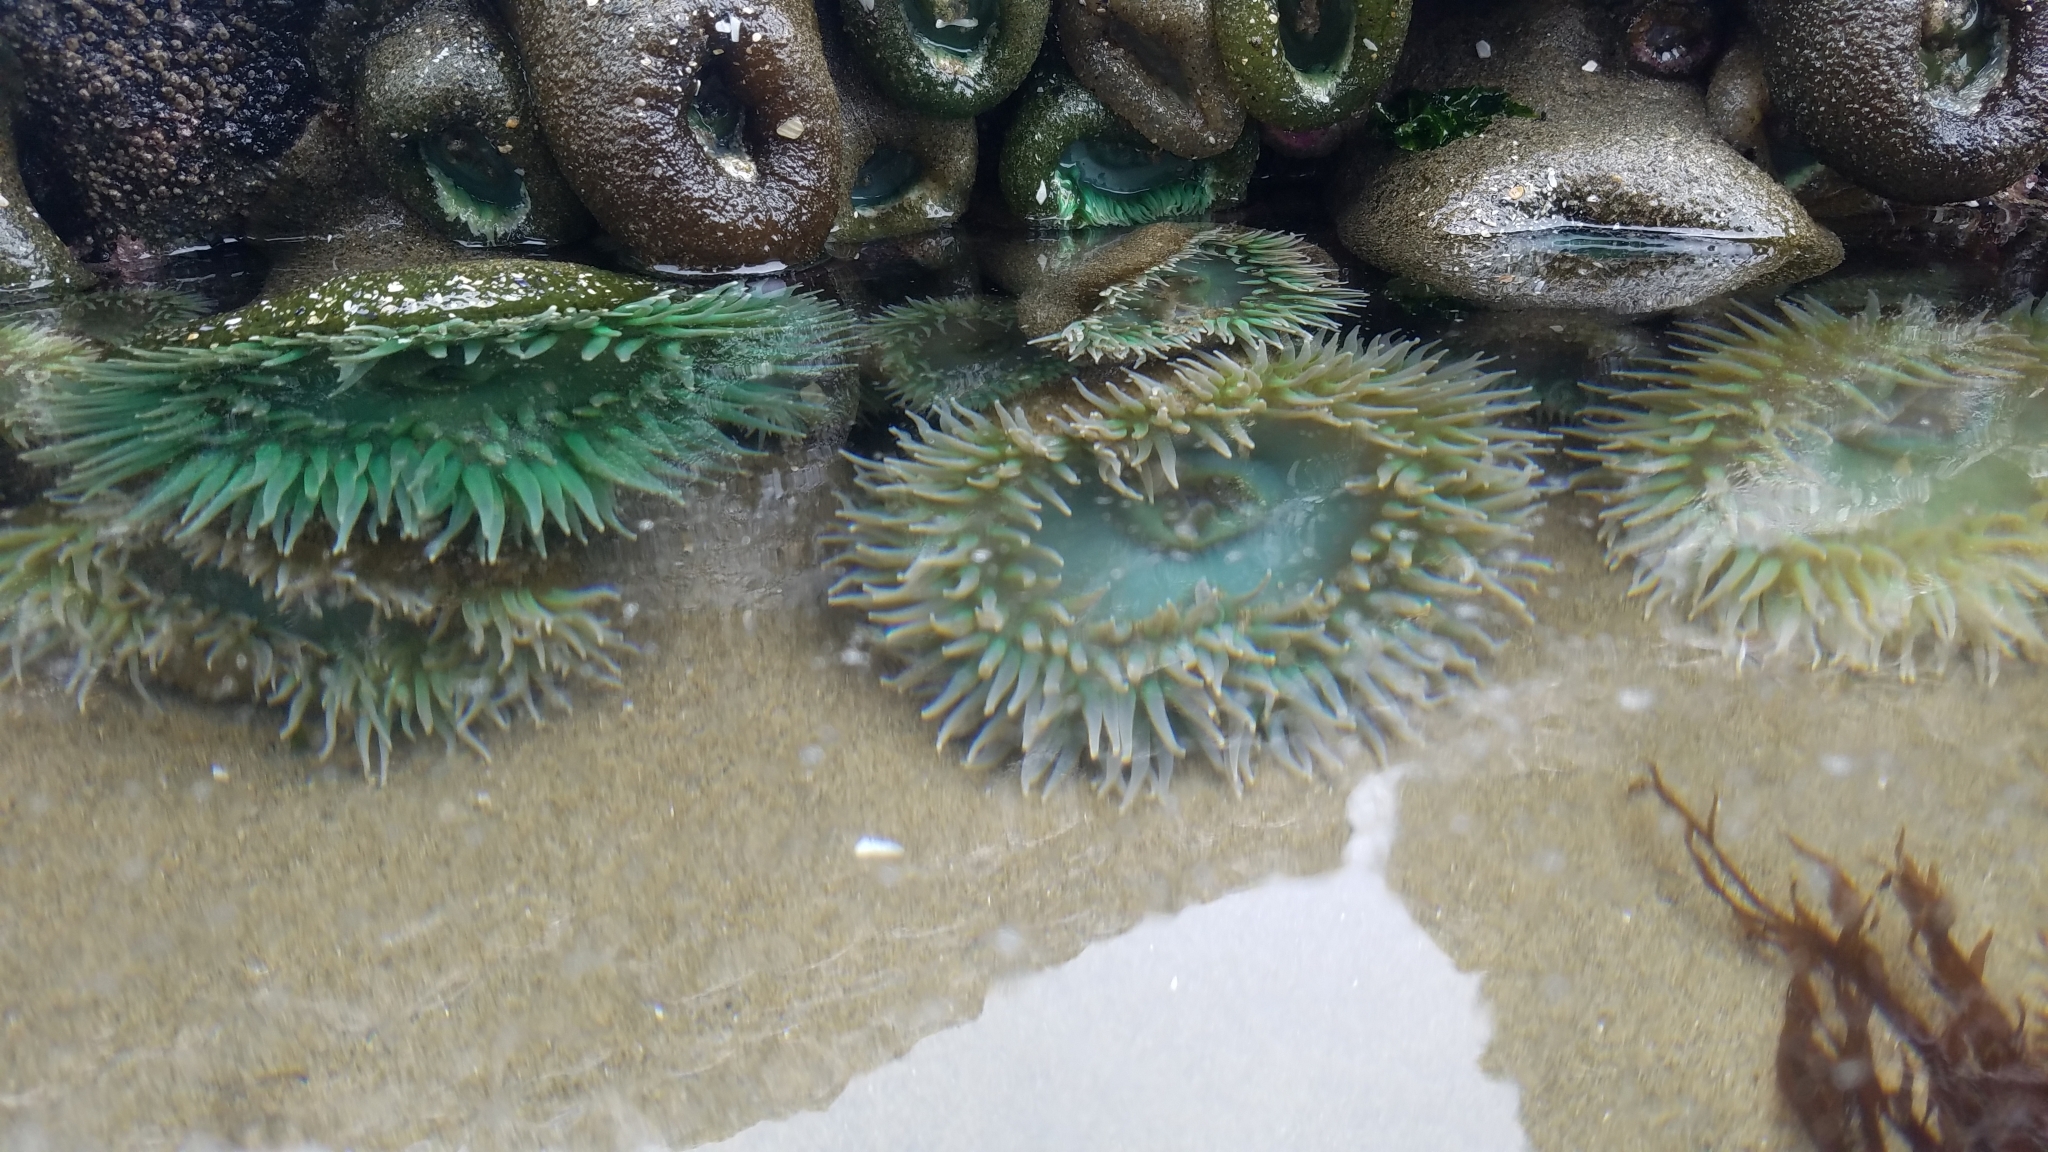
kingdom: Animalia
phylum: Cnidaria
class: Anthozoa
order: Actiniaria
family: Actiniidae
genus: Anthopleura
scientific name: Anthopleura xanthogrammica
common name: Giant green anemone
